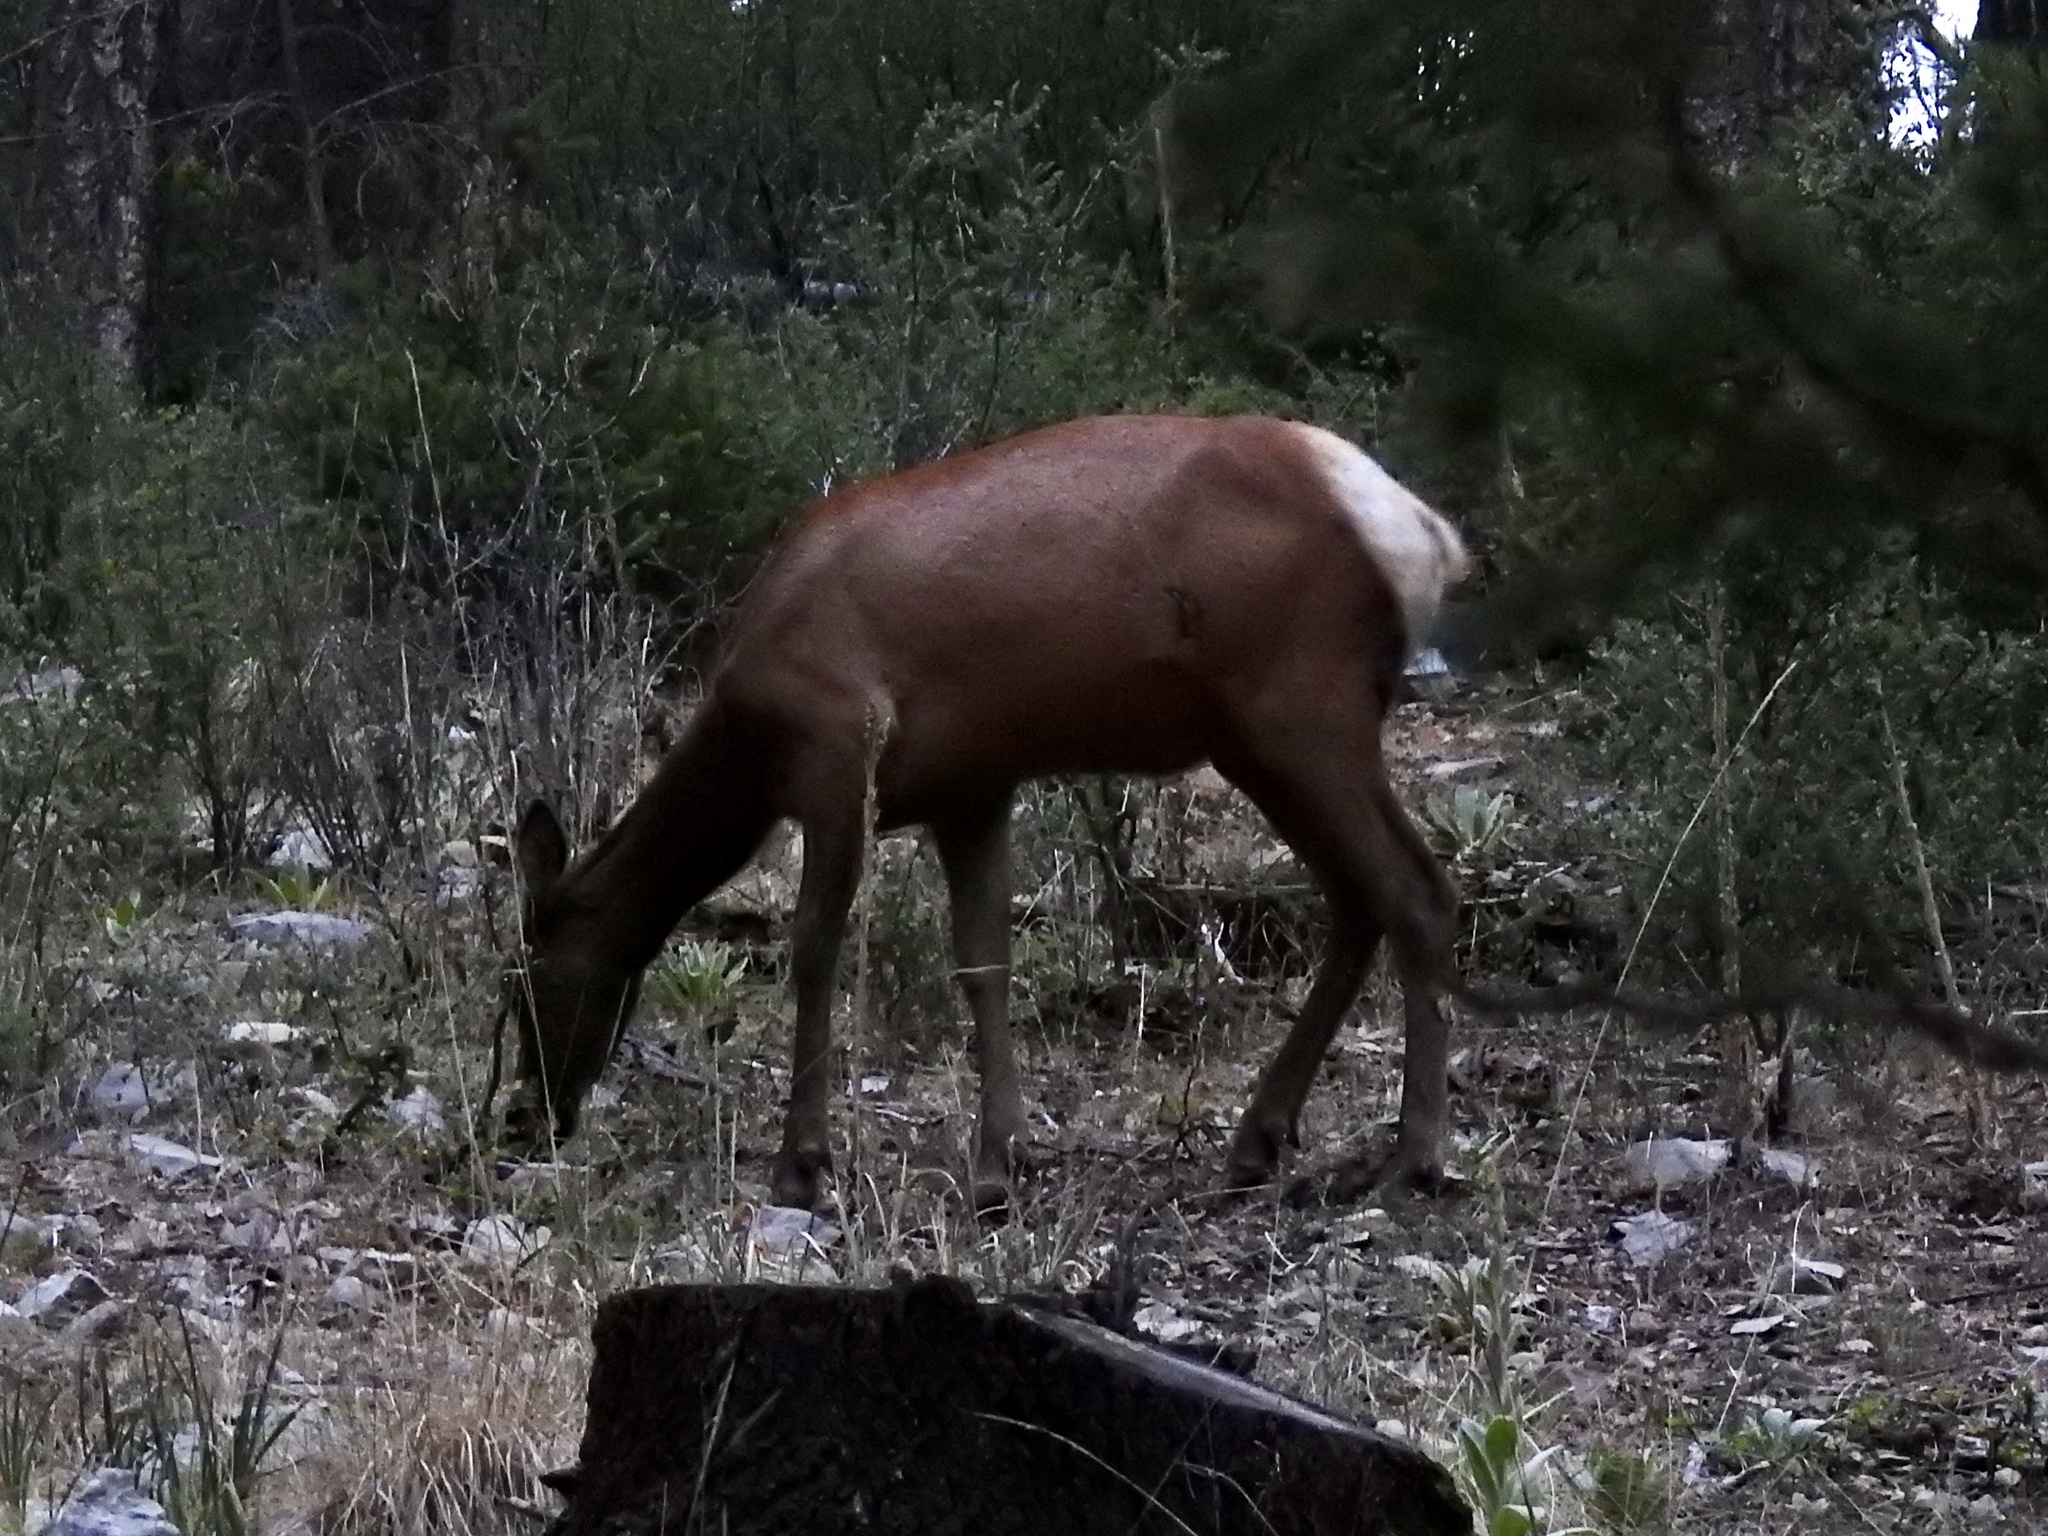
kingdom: Animalia
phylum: Chordata
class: Mammalia
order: Artiodactyla
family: Cervidae
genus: Cervus
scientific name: Cervus elaphus
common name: Red deer
